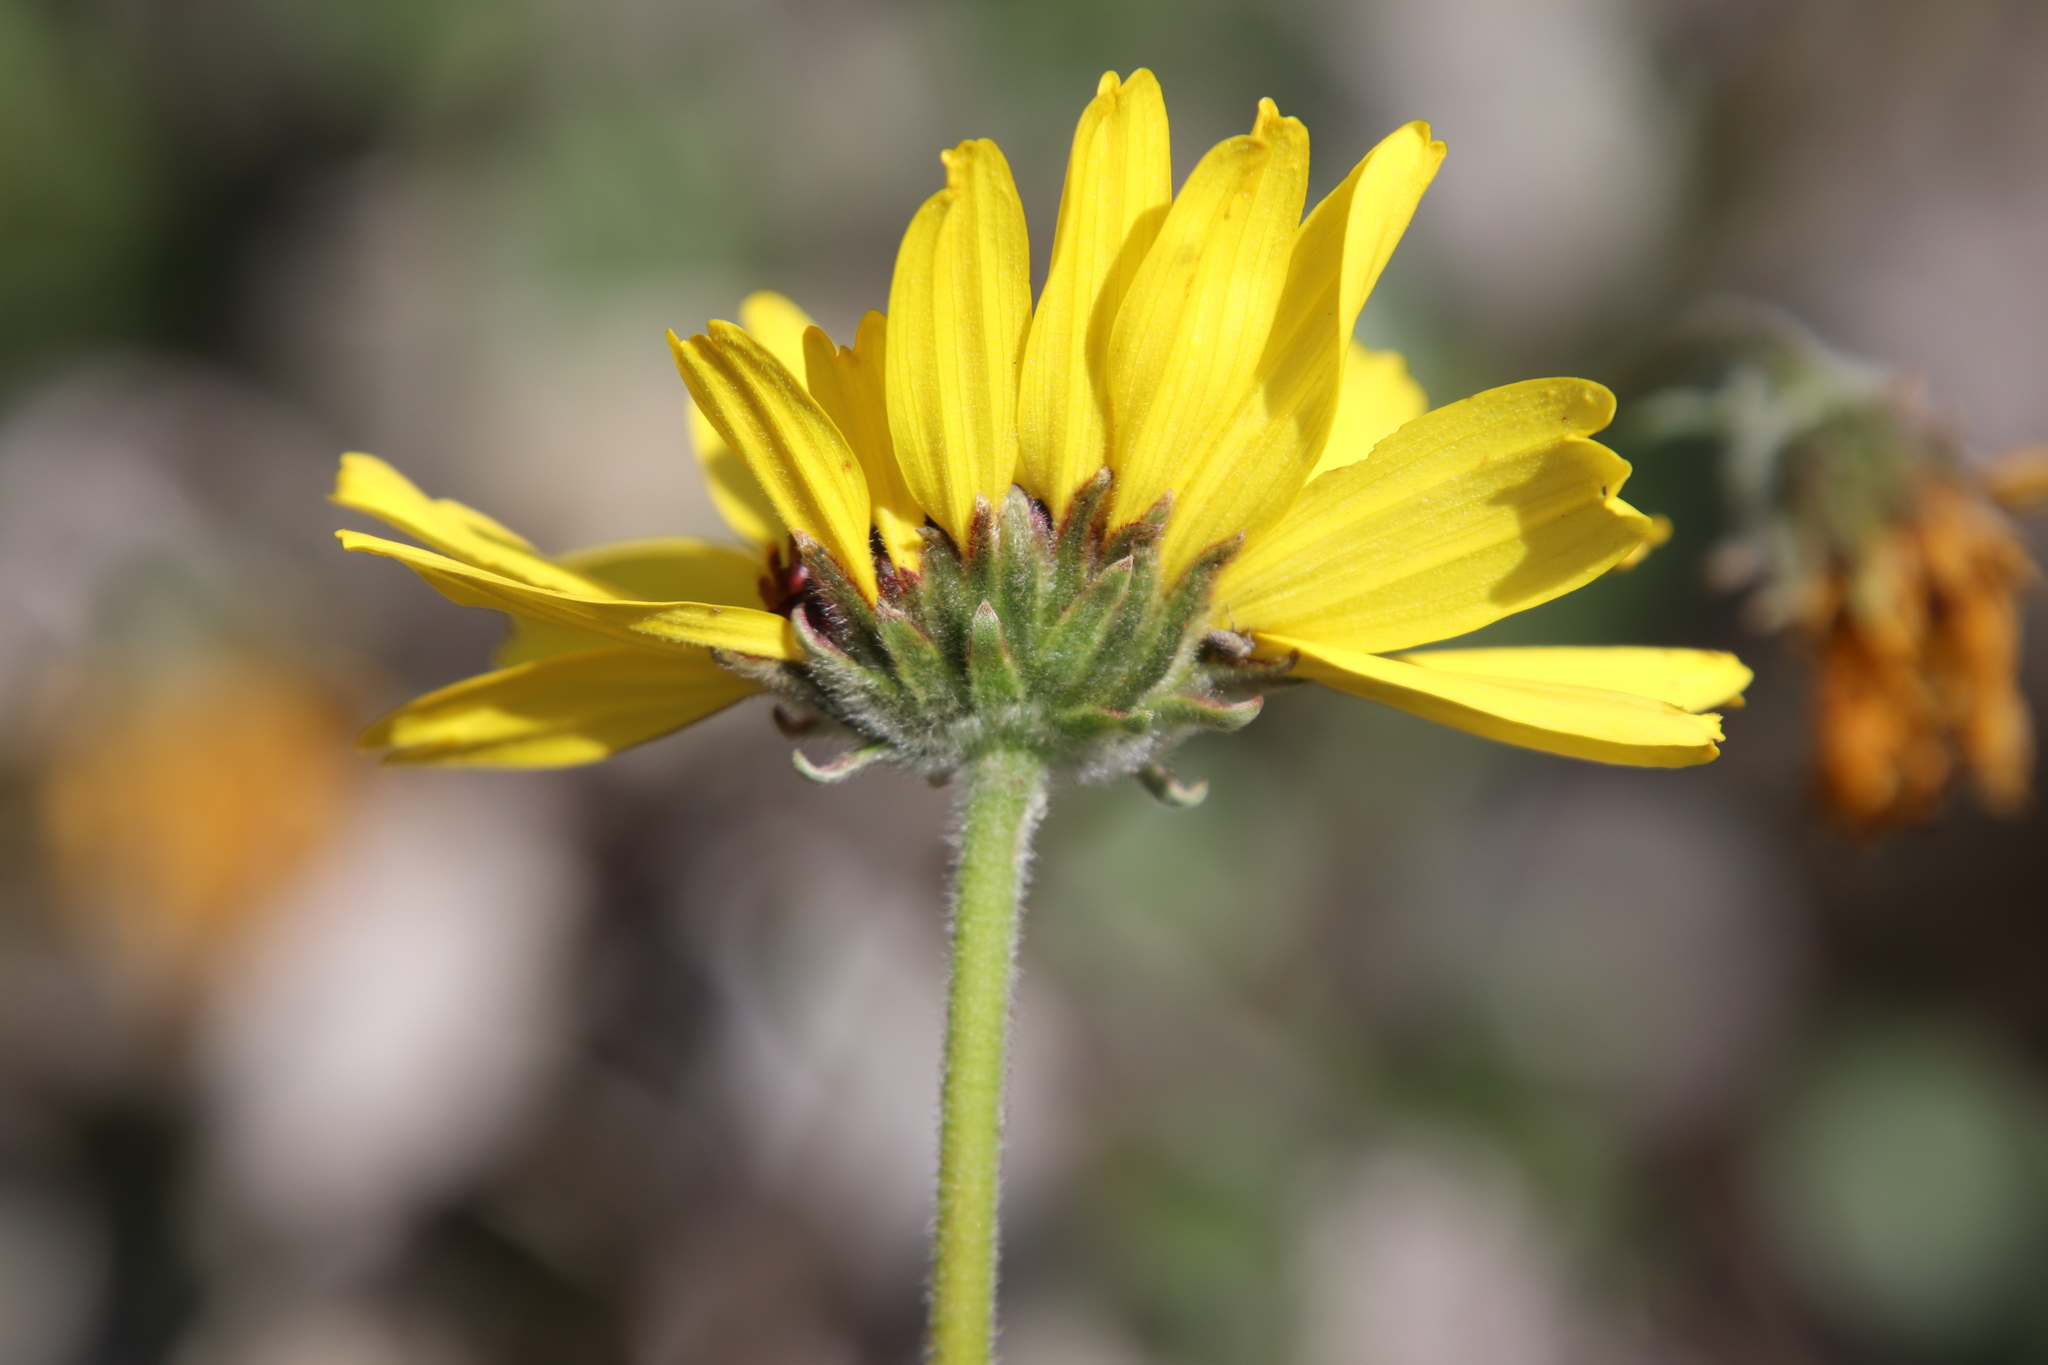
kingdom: Plantae
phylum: Tracheophyta
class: Magnoliopsida
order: Asterales
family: Asteraceae
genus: Encelia
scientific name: Encelia californica
